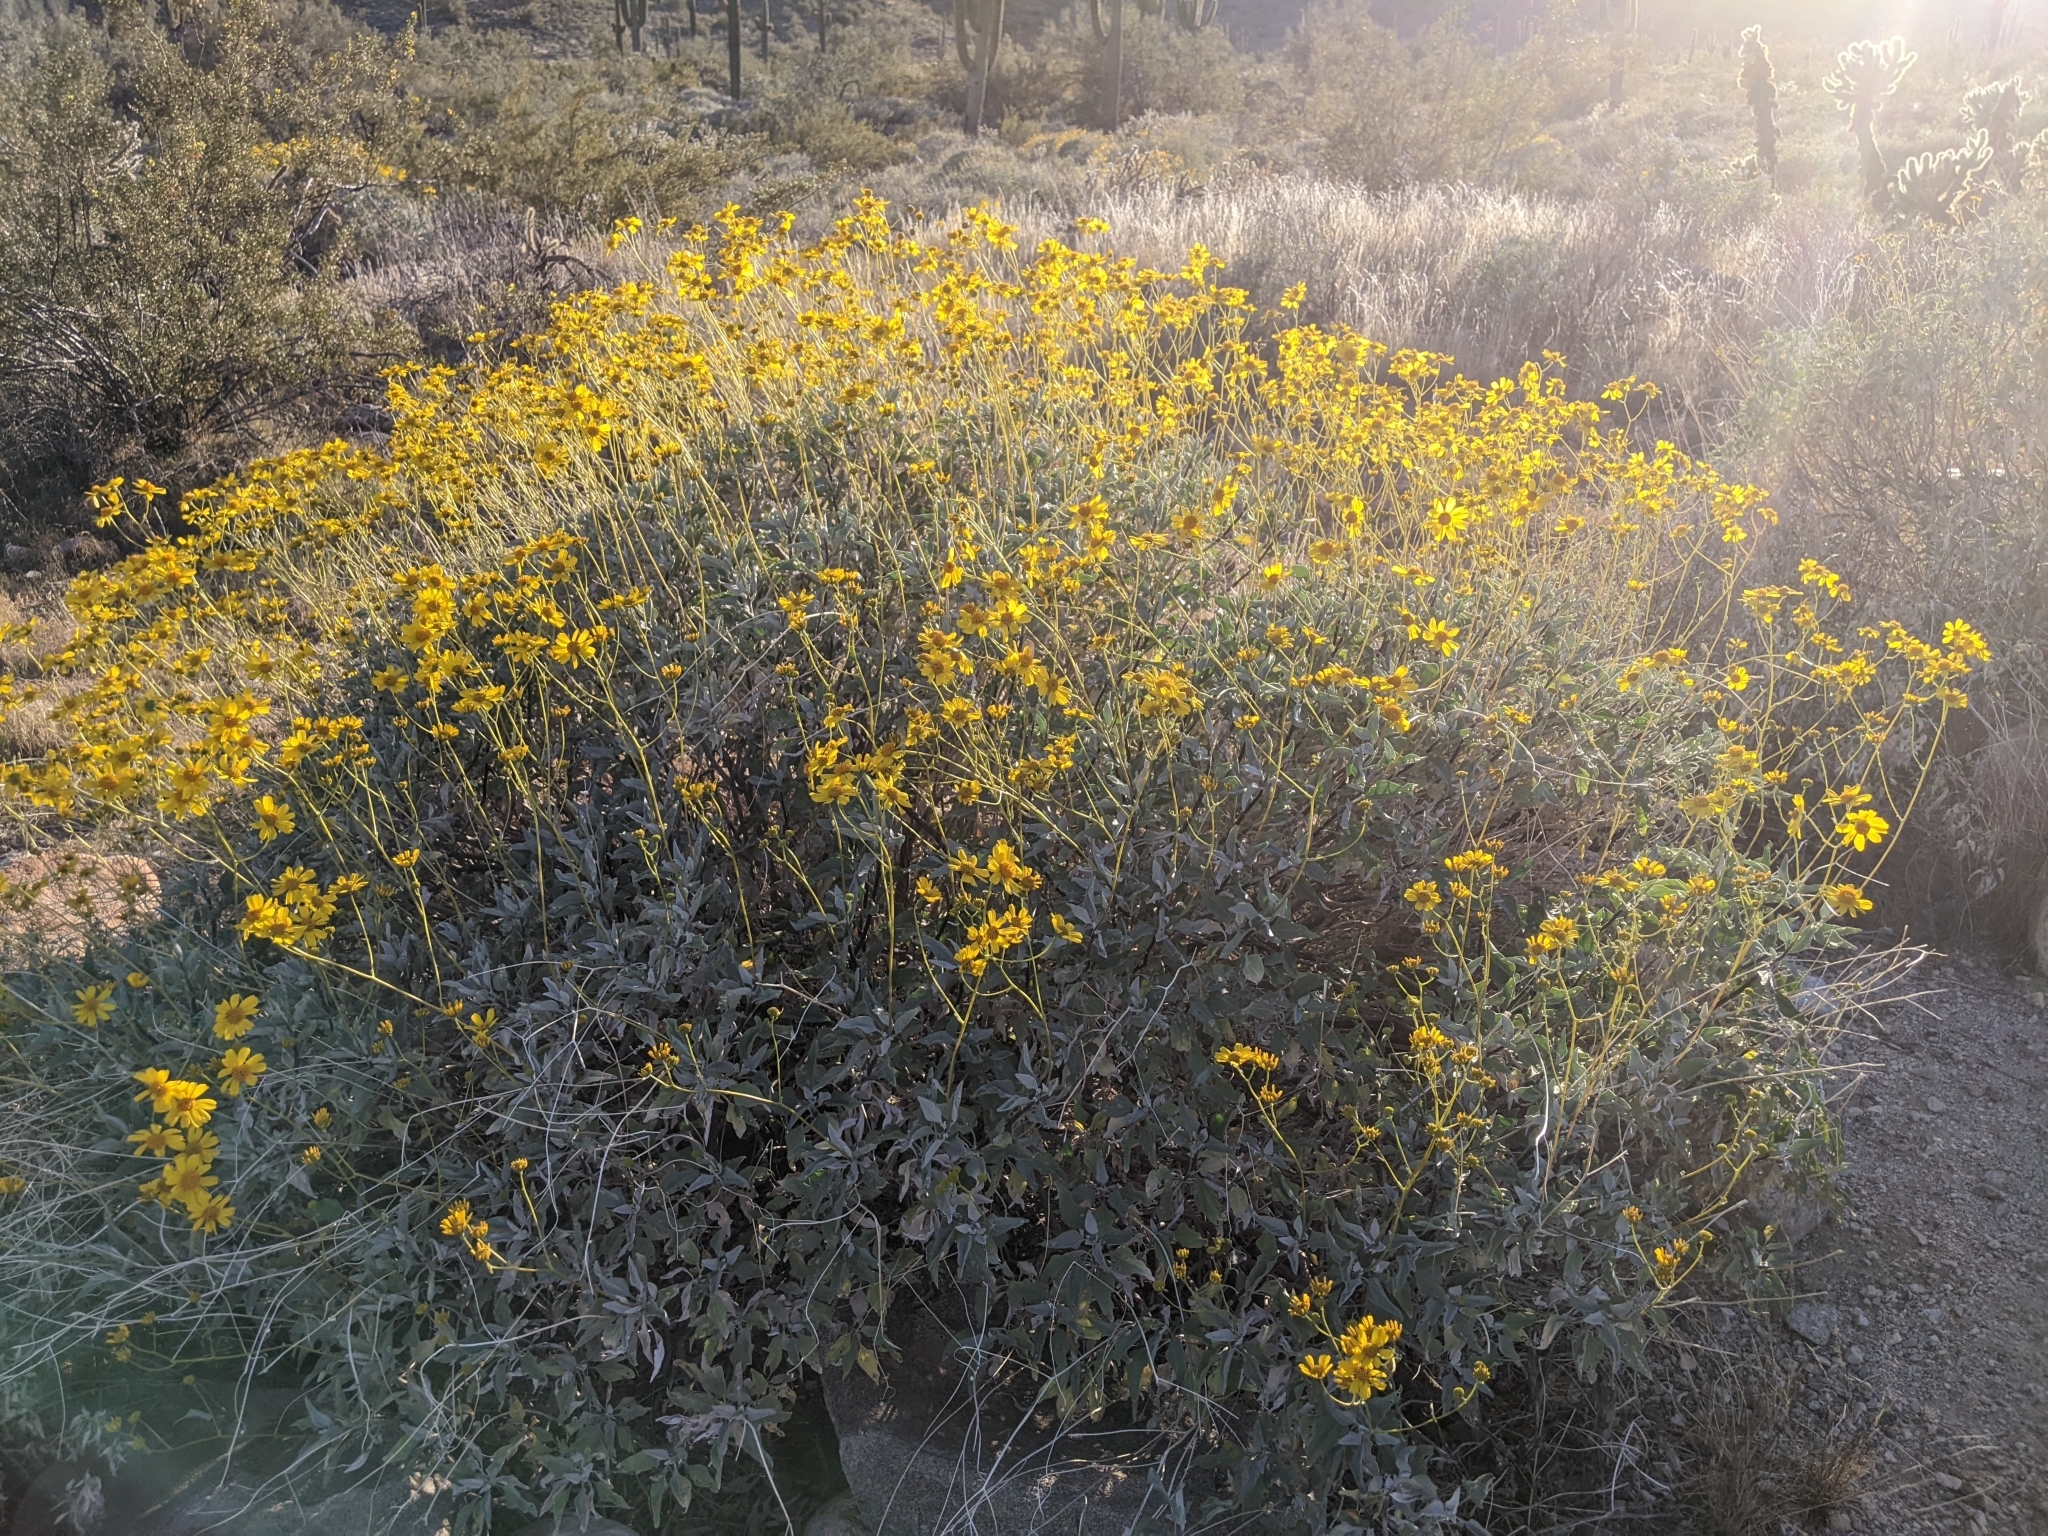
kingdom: Plantae
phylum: Tracheophyta
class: Magnoliopsida
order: Asterales
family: Asteraceae
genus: Encelia
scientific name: Encelia farinosa
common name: Brittlebush
